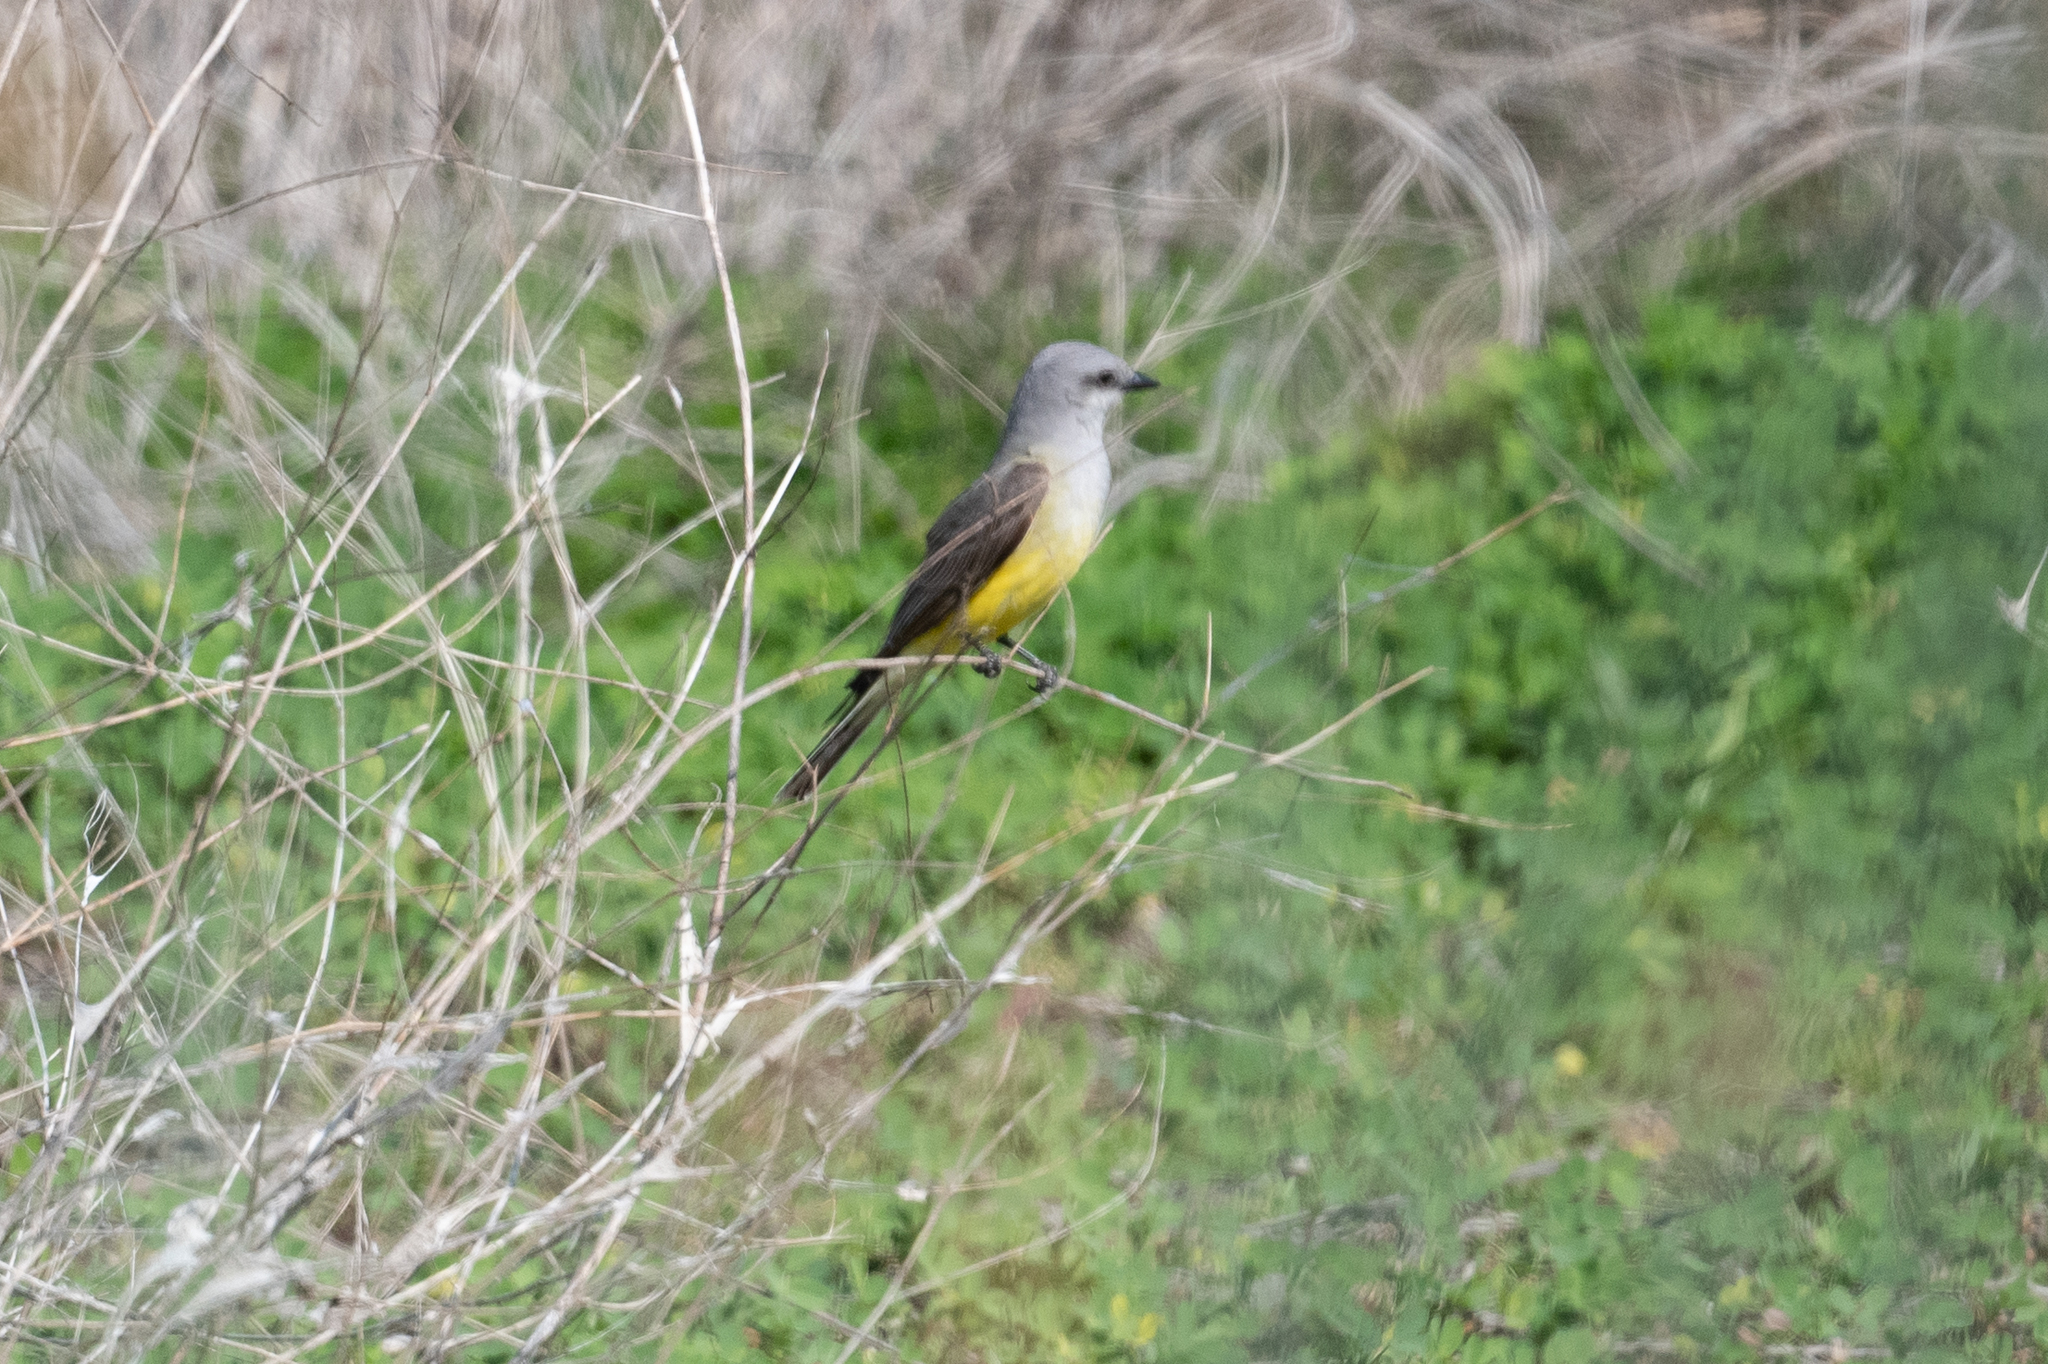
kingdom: Animalia
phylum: Chordata
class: Aves
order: Passeriformes
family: Tyrannidae
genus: Tyrannus
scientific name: Tyrannus verticalis
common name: Western kingbird
